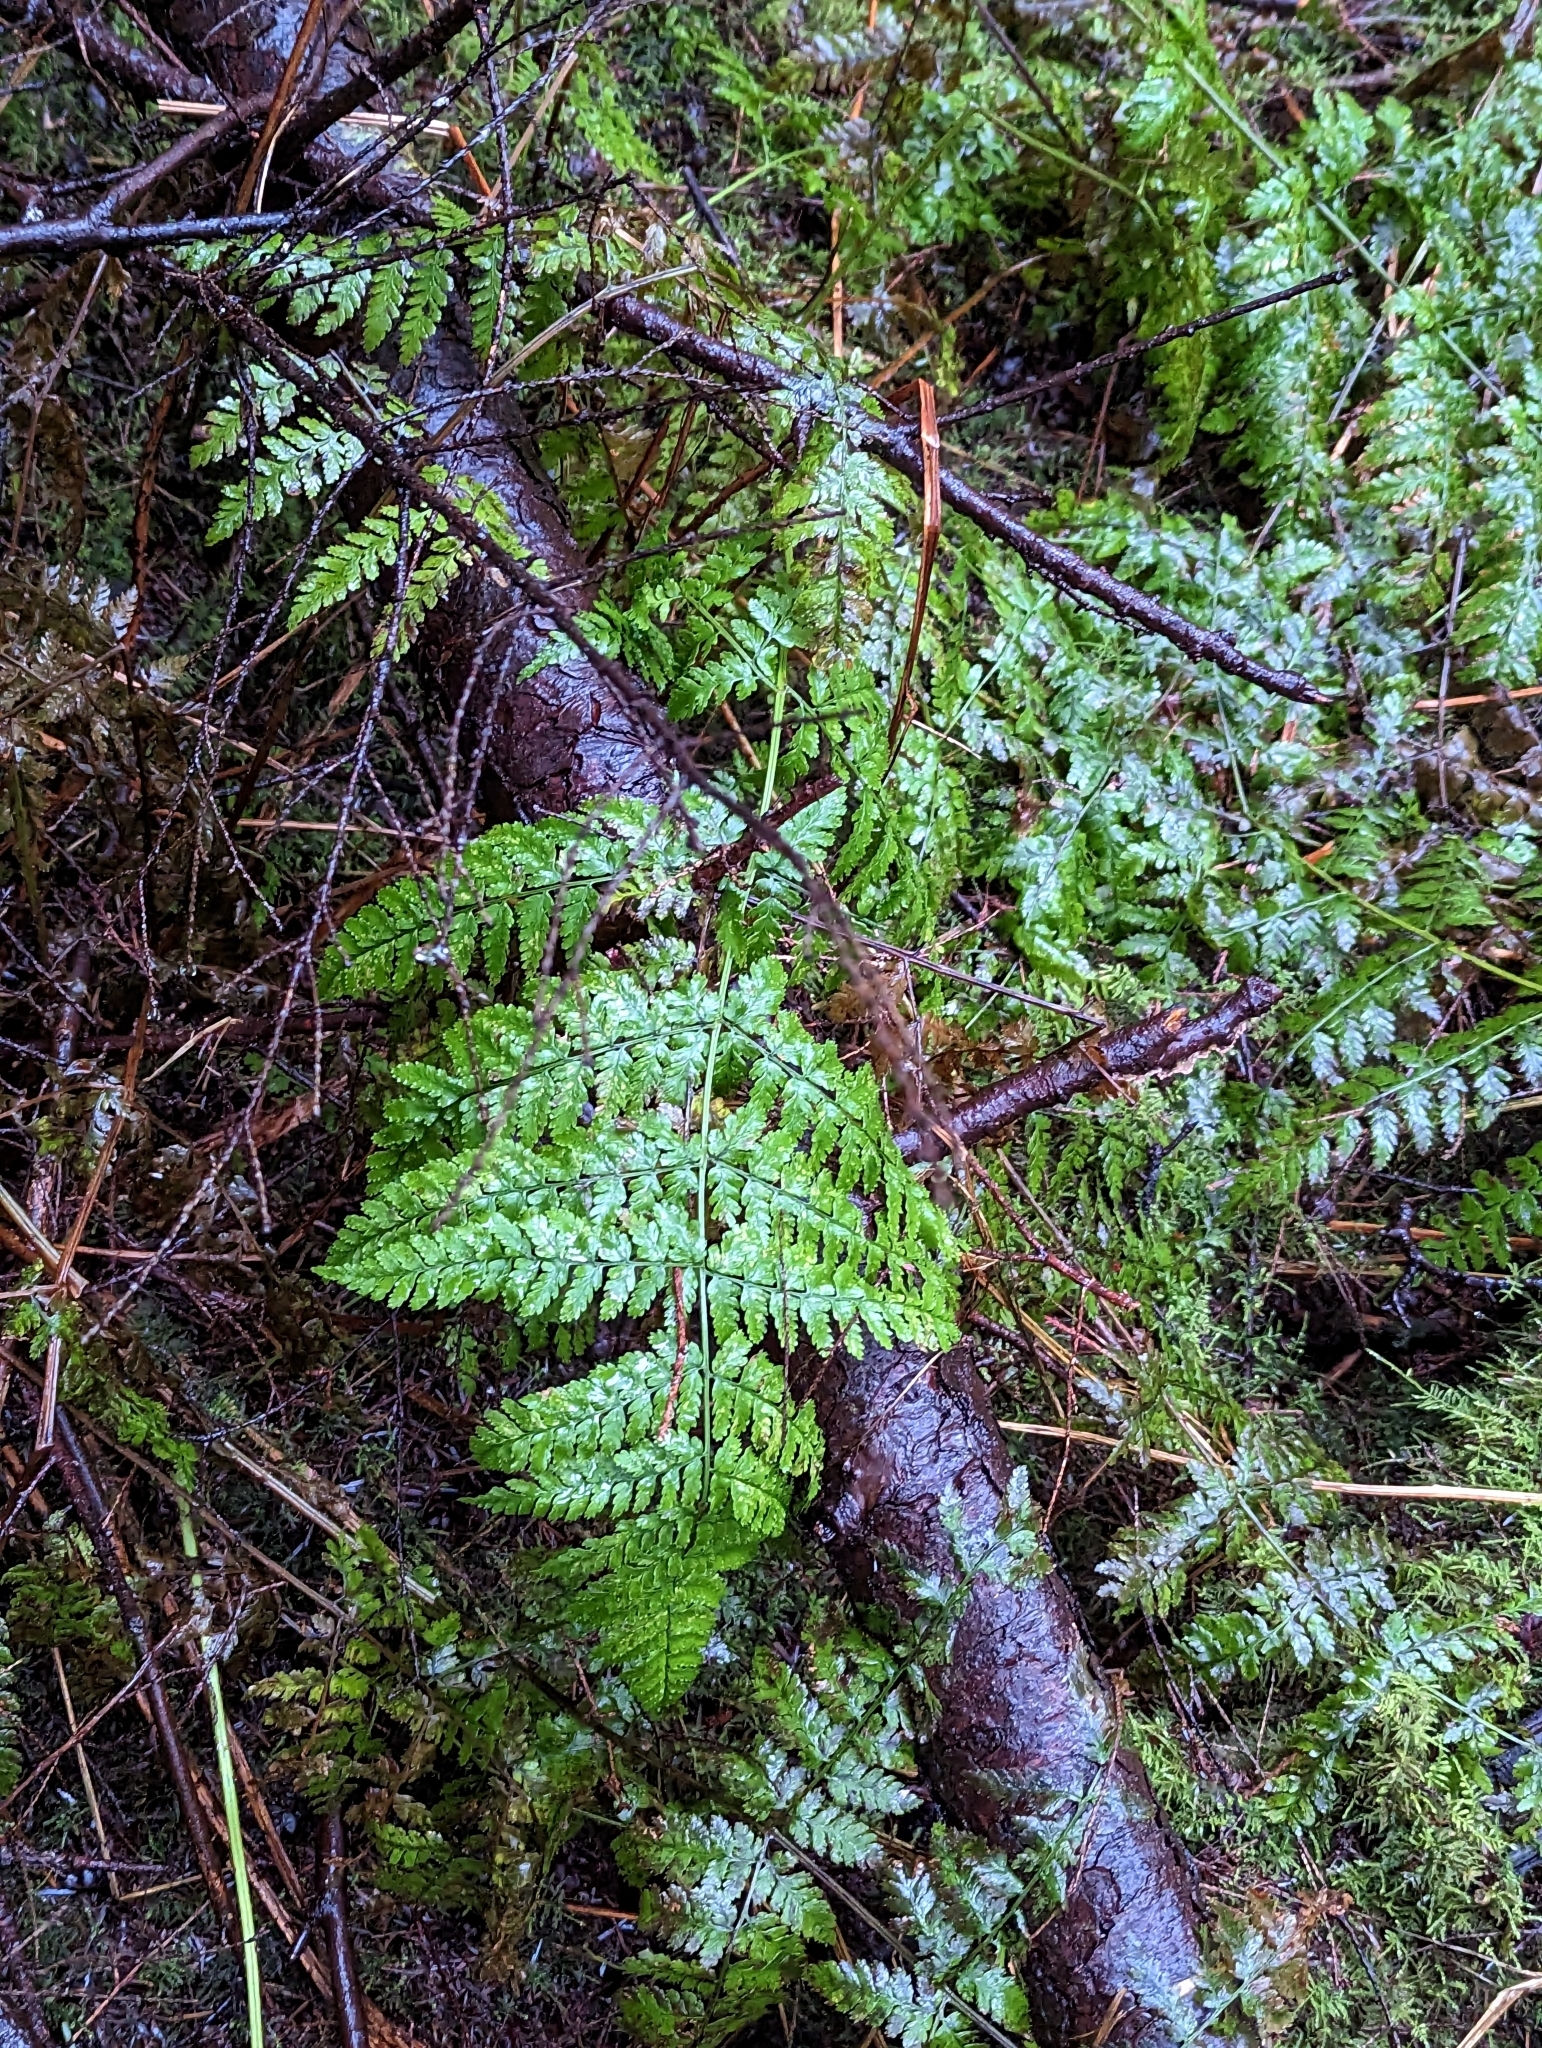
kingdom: Plantae
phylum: Tracheophyta
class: Polypodiopsida
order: Polypodiales
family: Dryopteridaceae
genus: Dryopteris
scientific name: Dryopteris expansa
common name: Northern buckler fern
